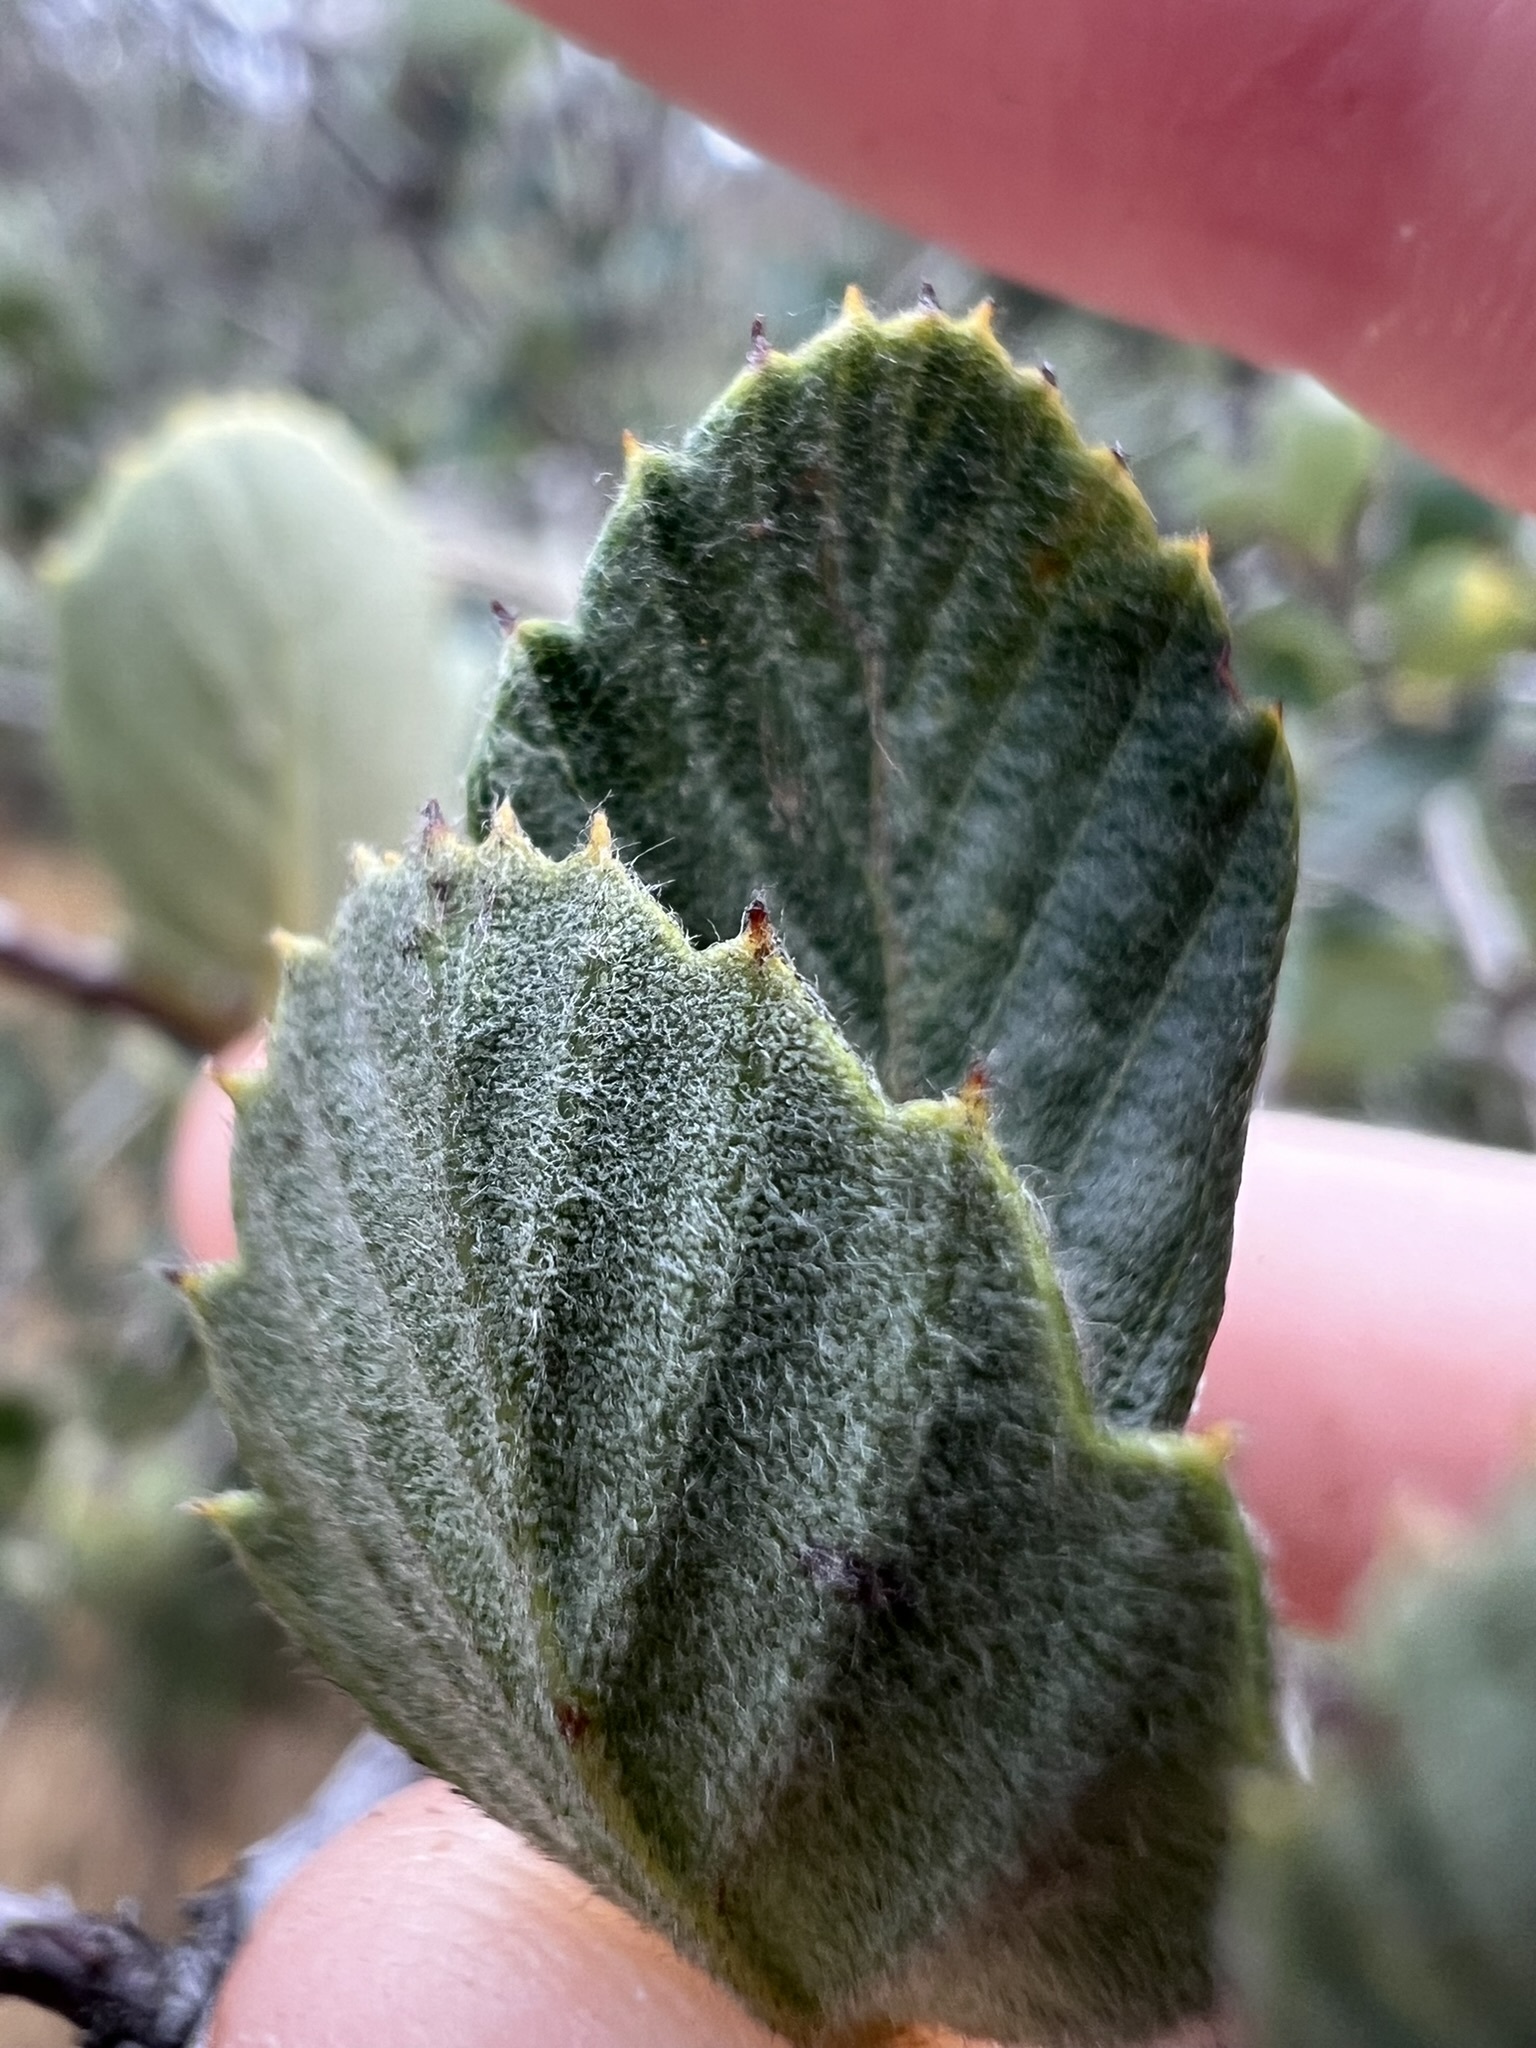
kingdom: Plantae
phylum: Tracheophyta
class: Magnoliopsida
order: Rosales
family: Rosaceae
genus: Cercocarpus
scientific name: Cercocarpus betuloides
